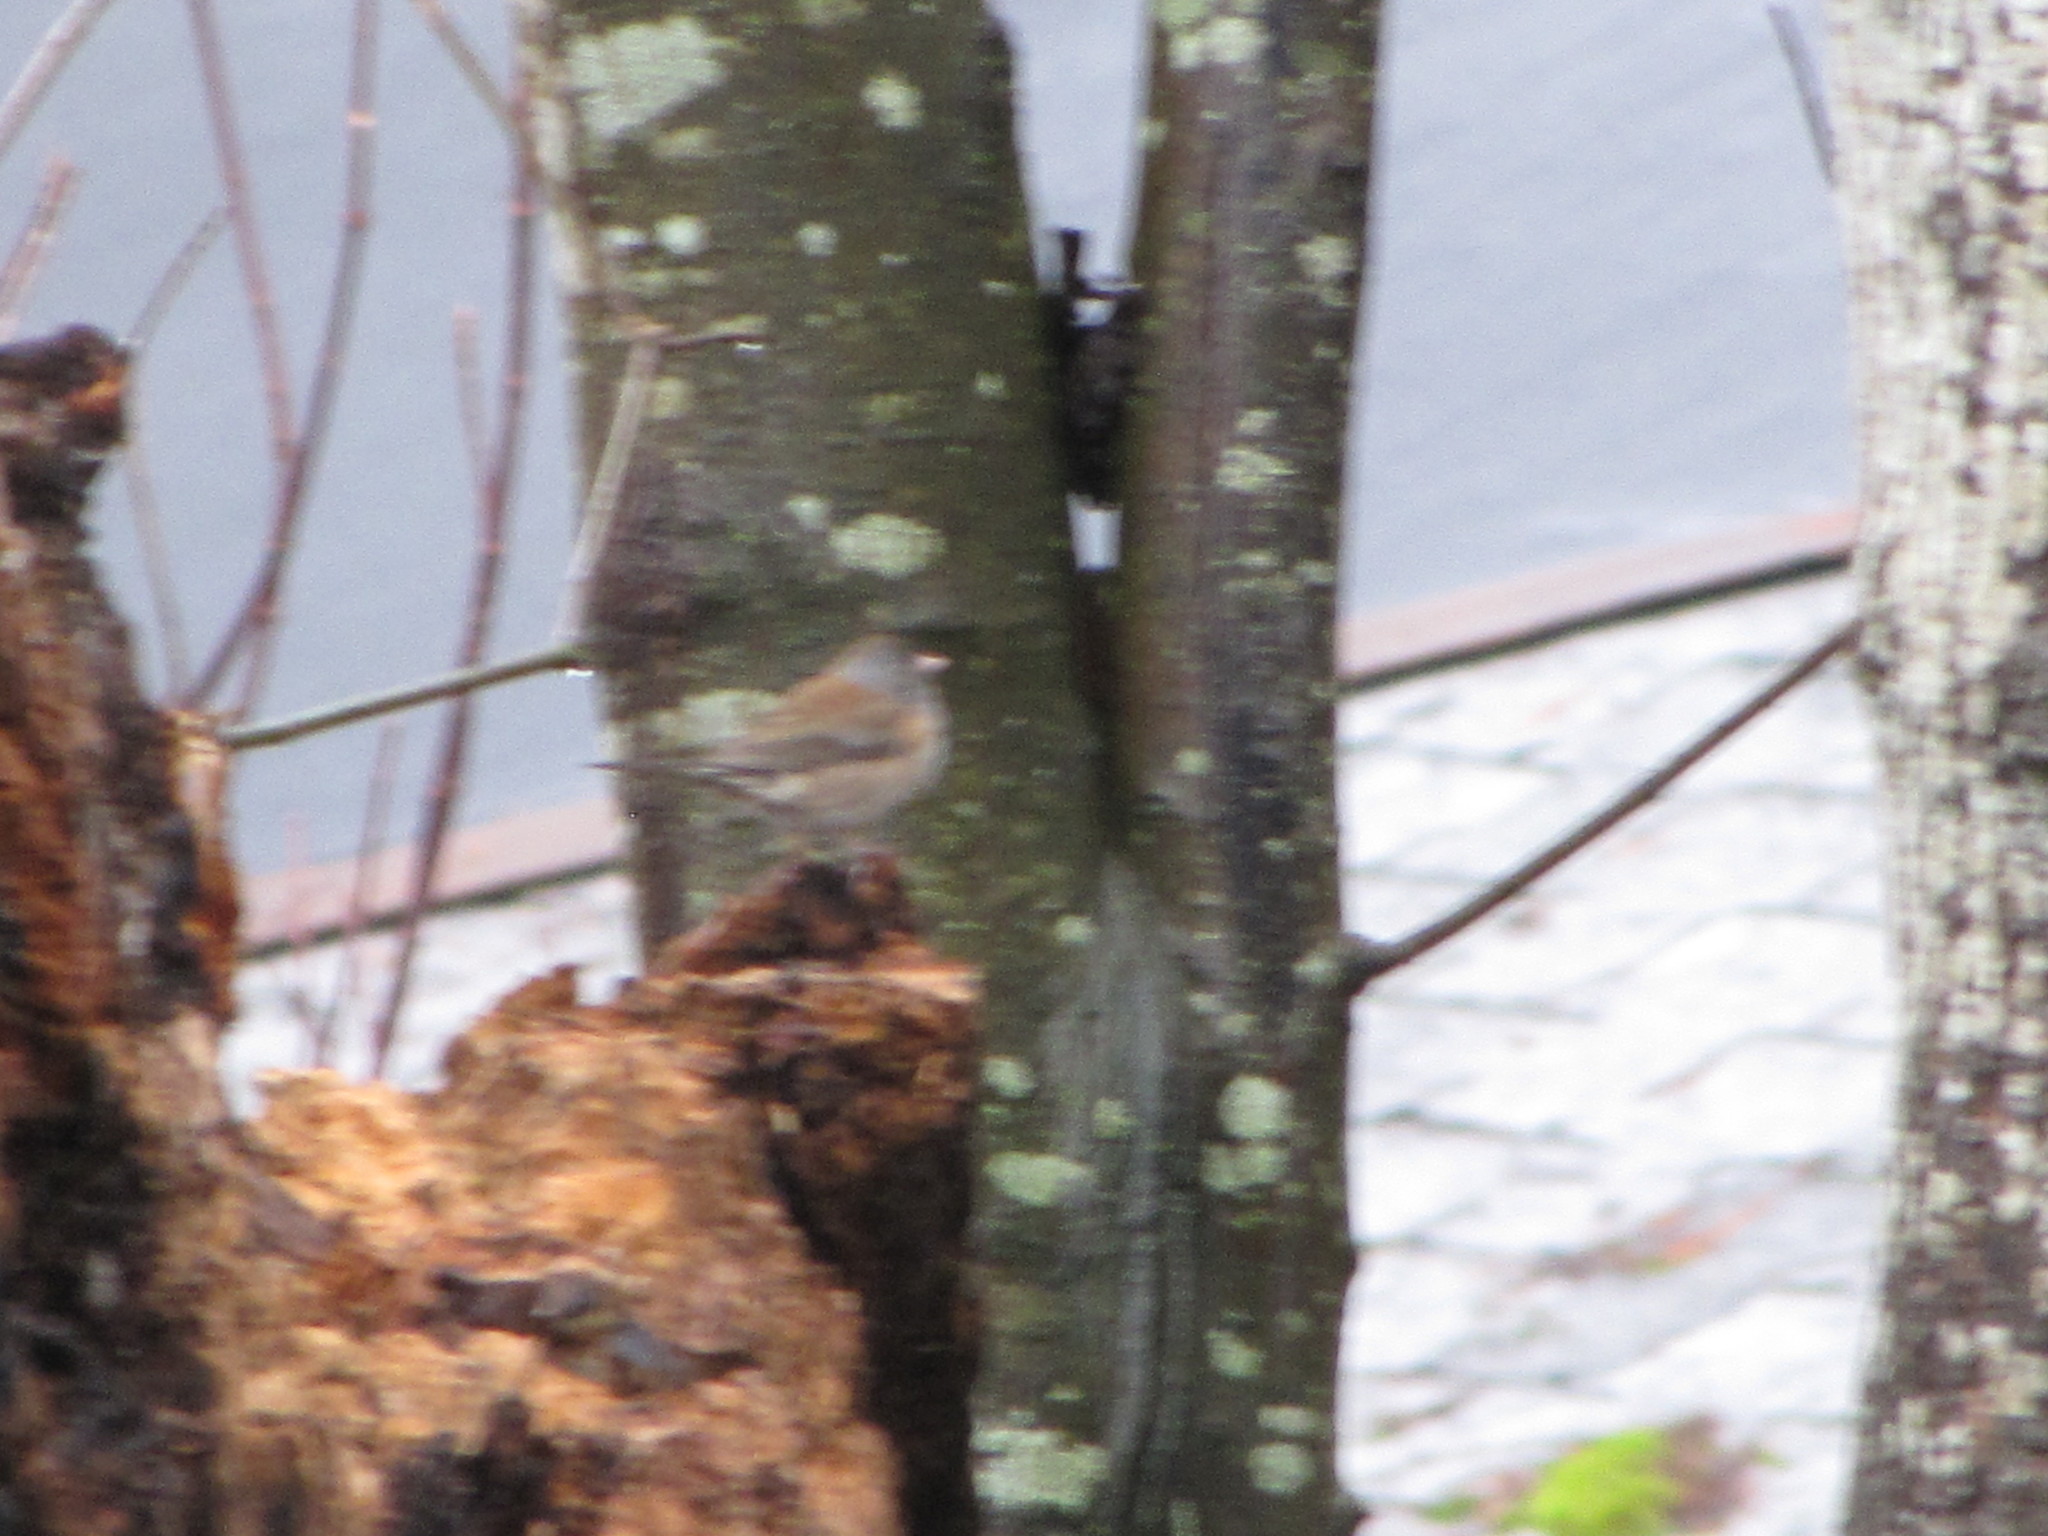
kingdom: Animalia
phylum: Chordata
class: Aves
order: Passeriformes
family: Passerellidae
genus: Junco
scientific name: Junco hyemalis
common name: Dark-eyed junco
